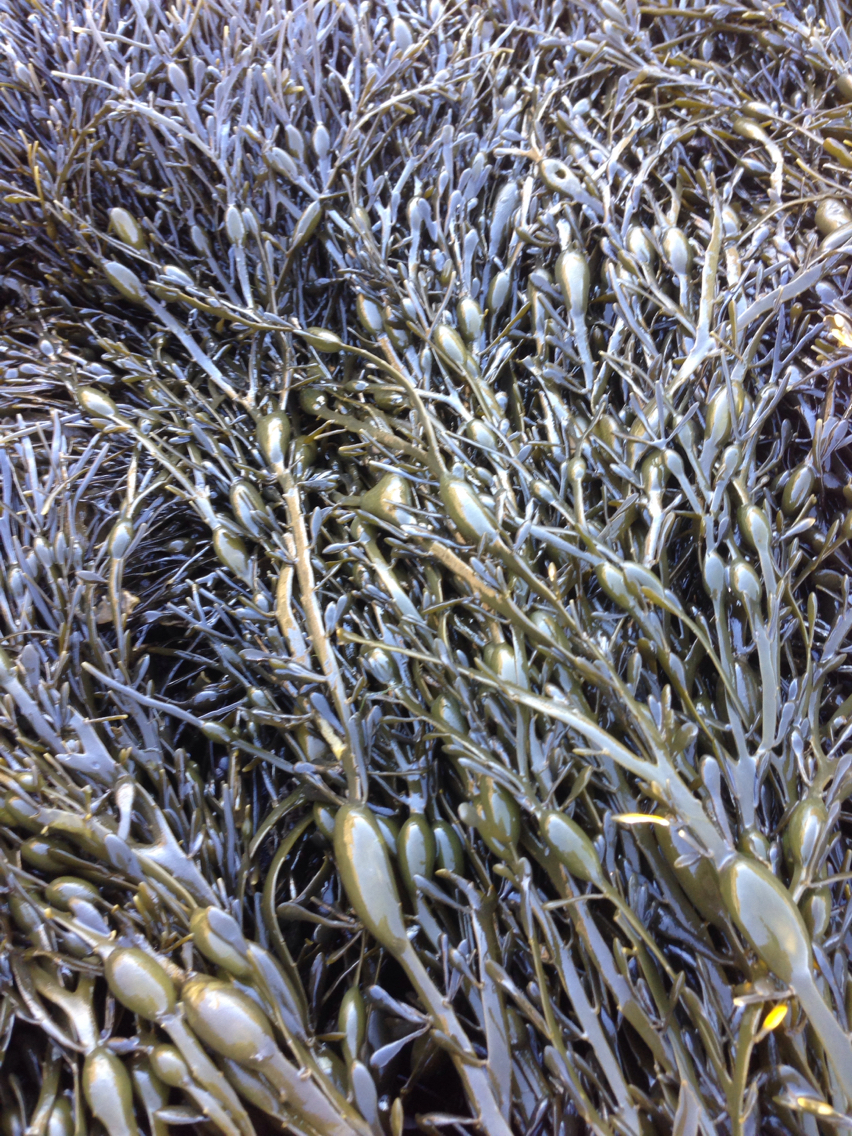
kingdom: Chromista
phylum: Ochrophyta
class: Phaeophyceae
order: Fucales
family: Fucaceae
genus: Ascophyllum
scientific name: Ascophyllum nodosum
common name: Knotted wrack
